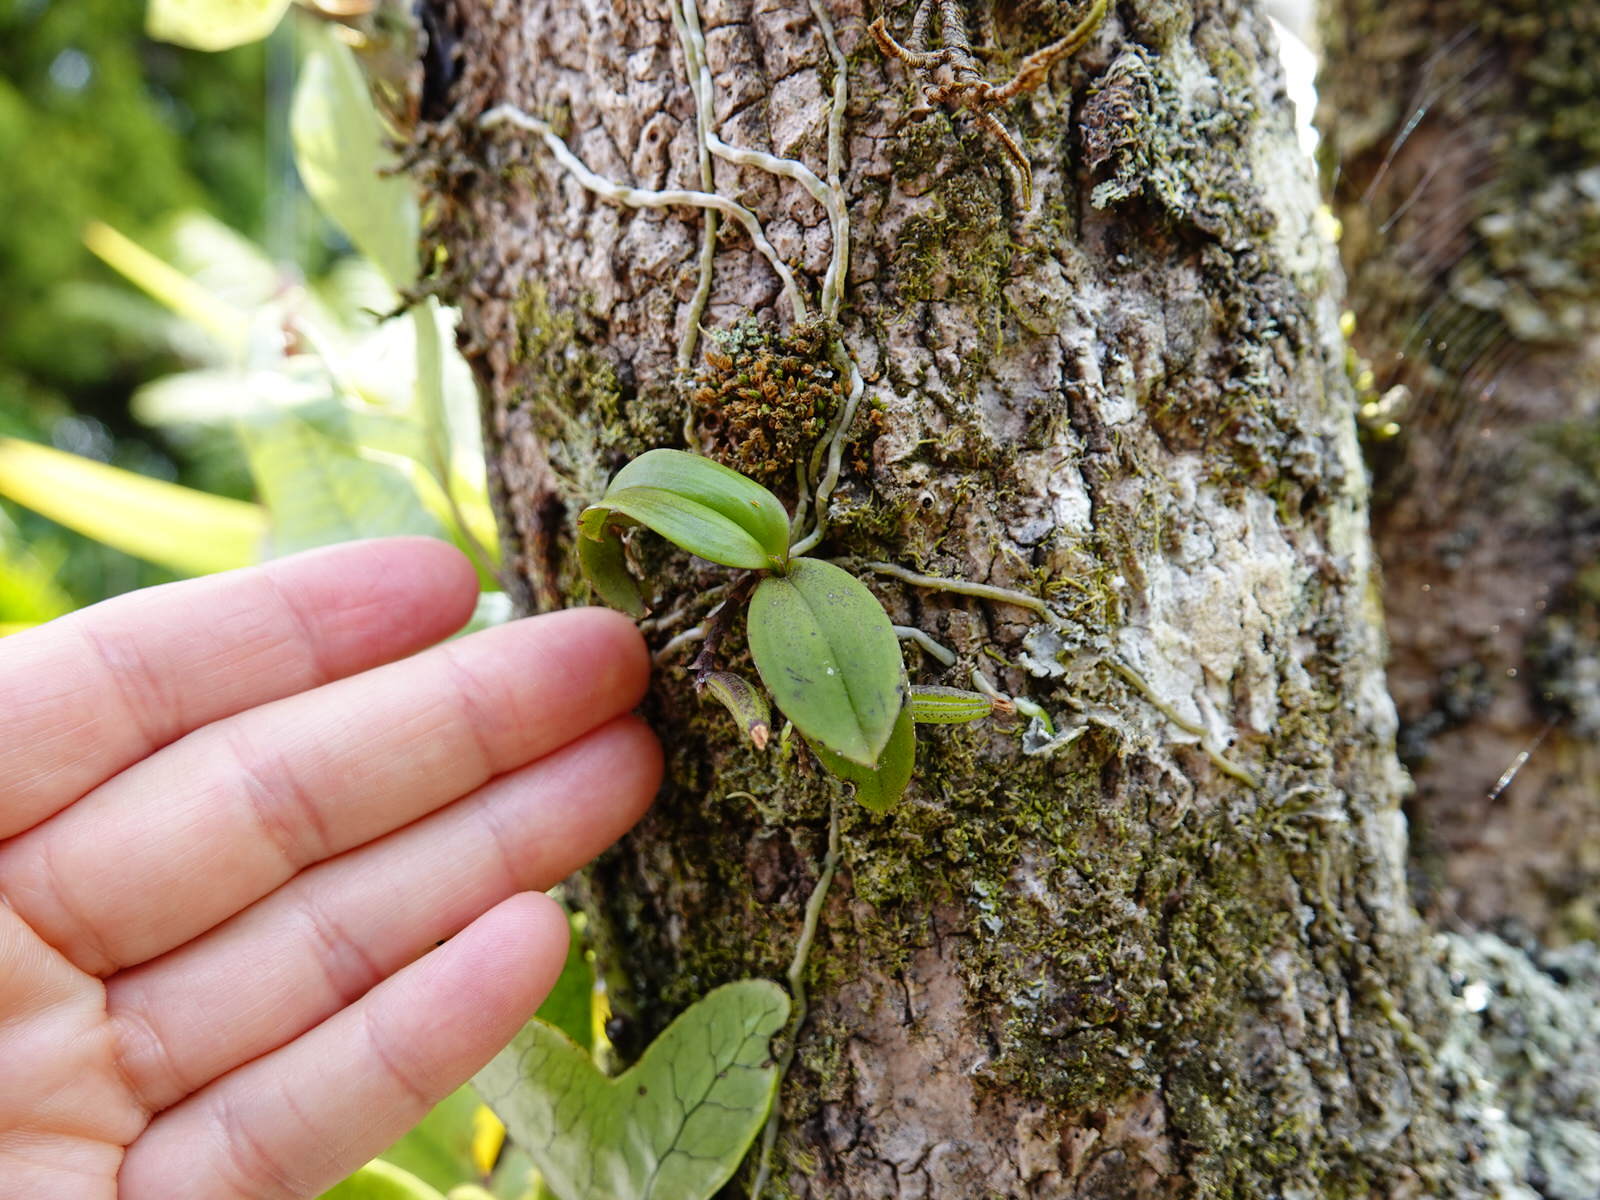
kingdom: Plantae
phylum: Tracheophyta
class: Liliopsida
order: Asparagales
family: Orchidaceae
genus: Drymoanthus
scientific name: Drymoanthus adversus
